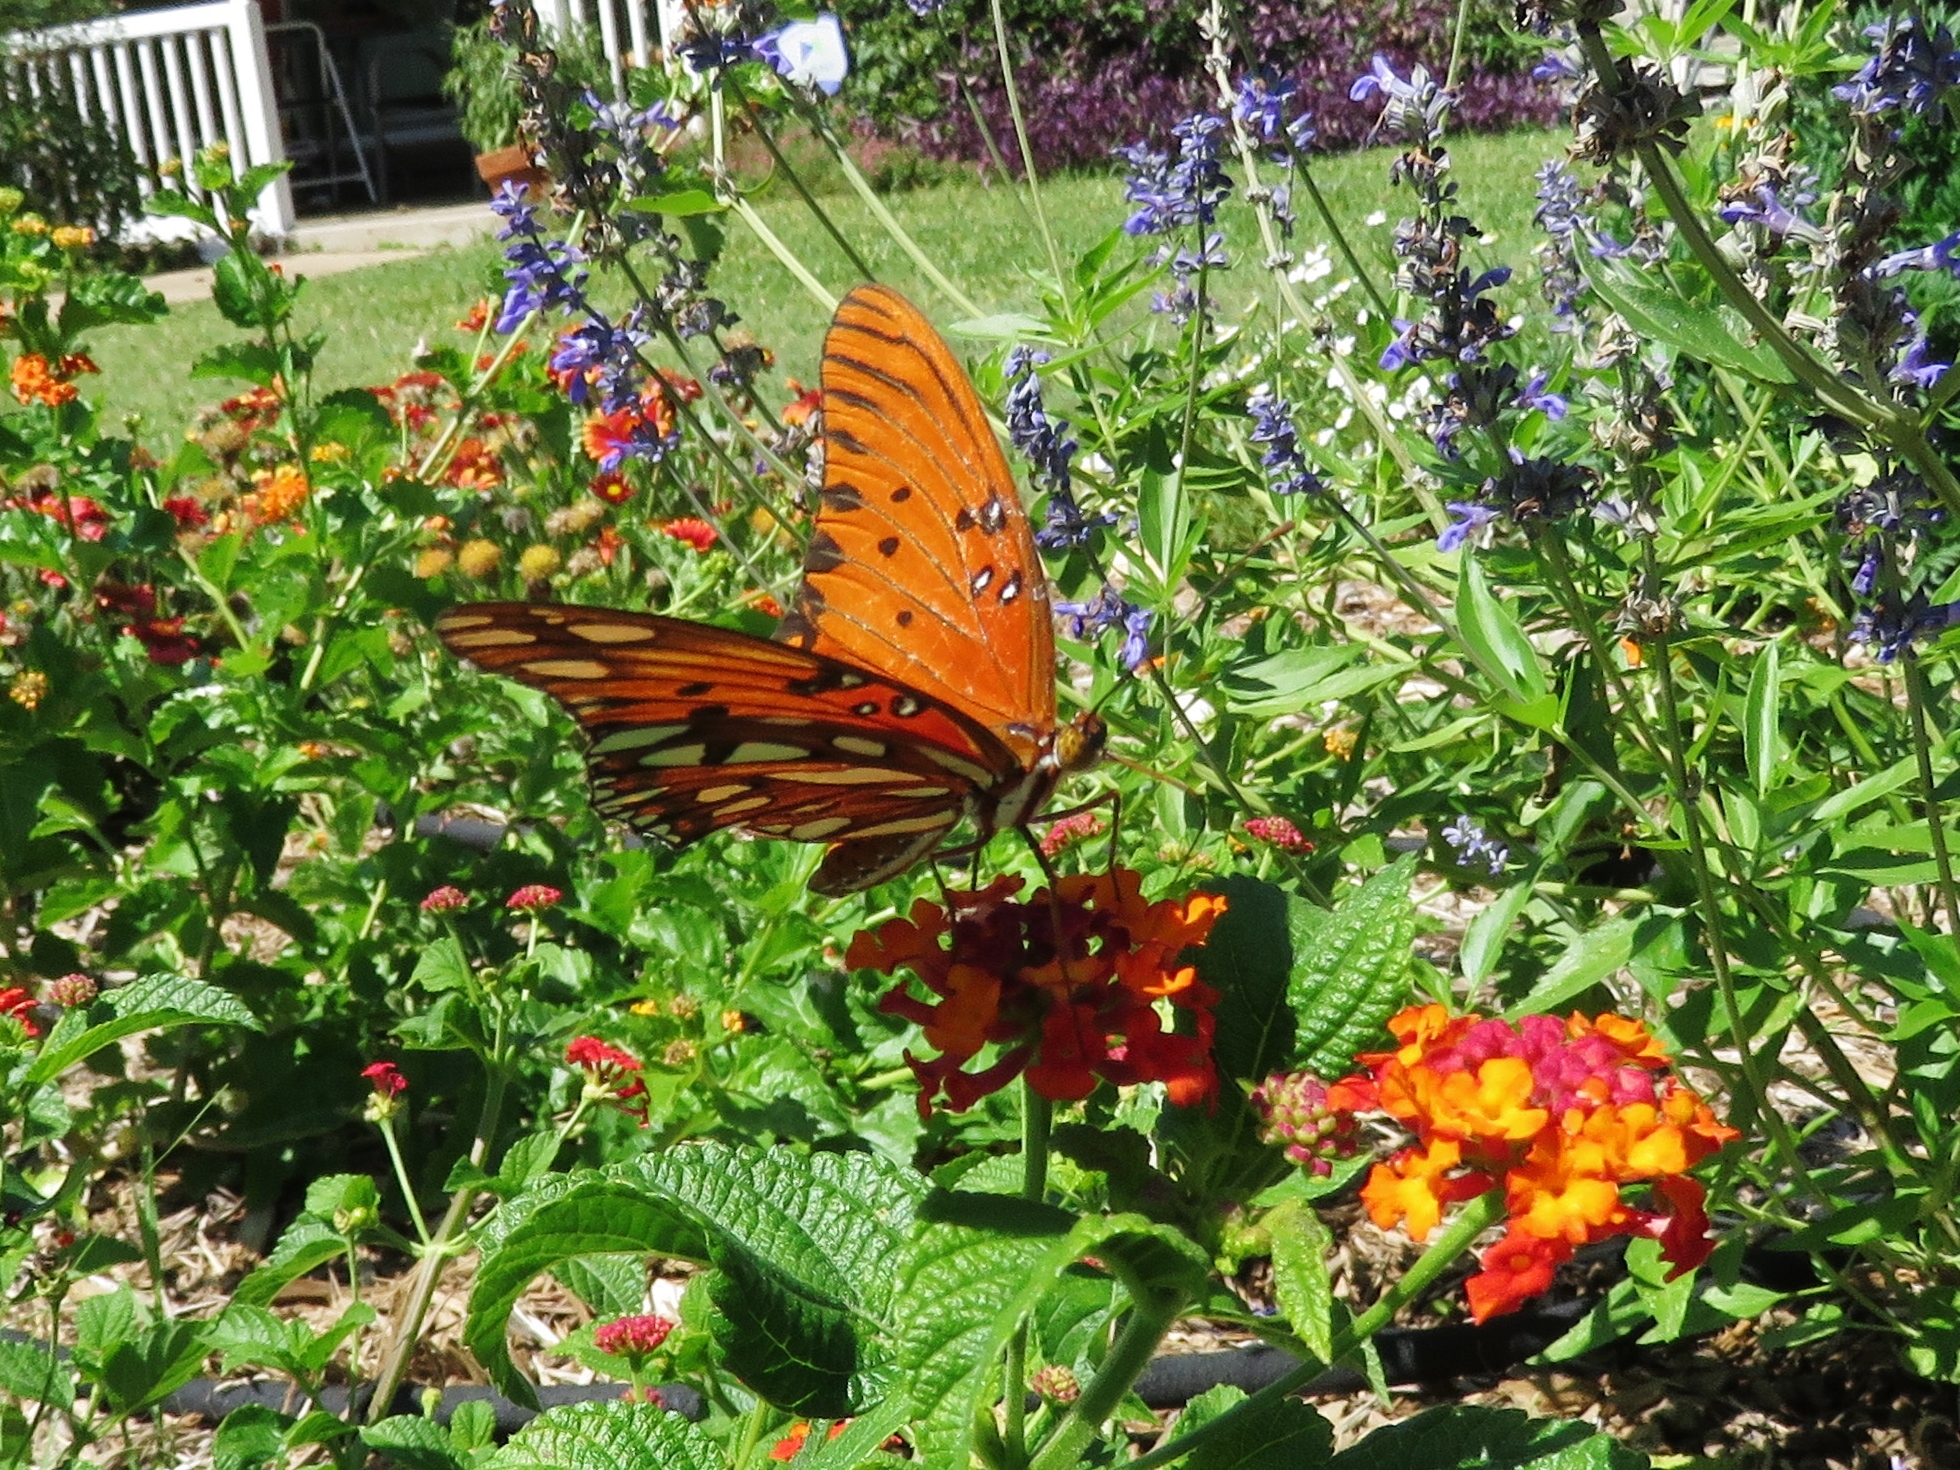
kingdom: Animalia
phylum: Arthropoda
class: Insecta
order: Lepidoptera
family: Nymphalidae
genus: Dione
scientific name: Dione vanillae
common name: Gulf fritillary
